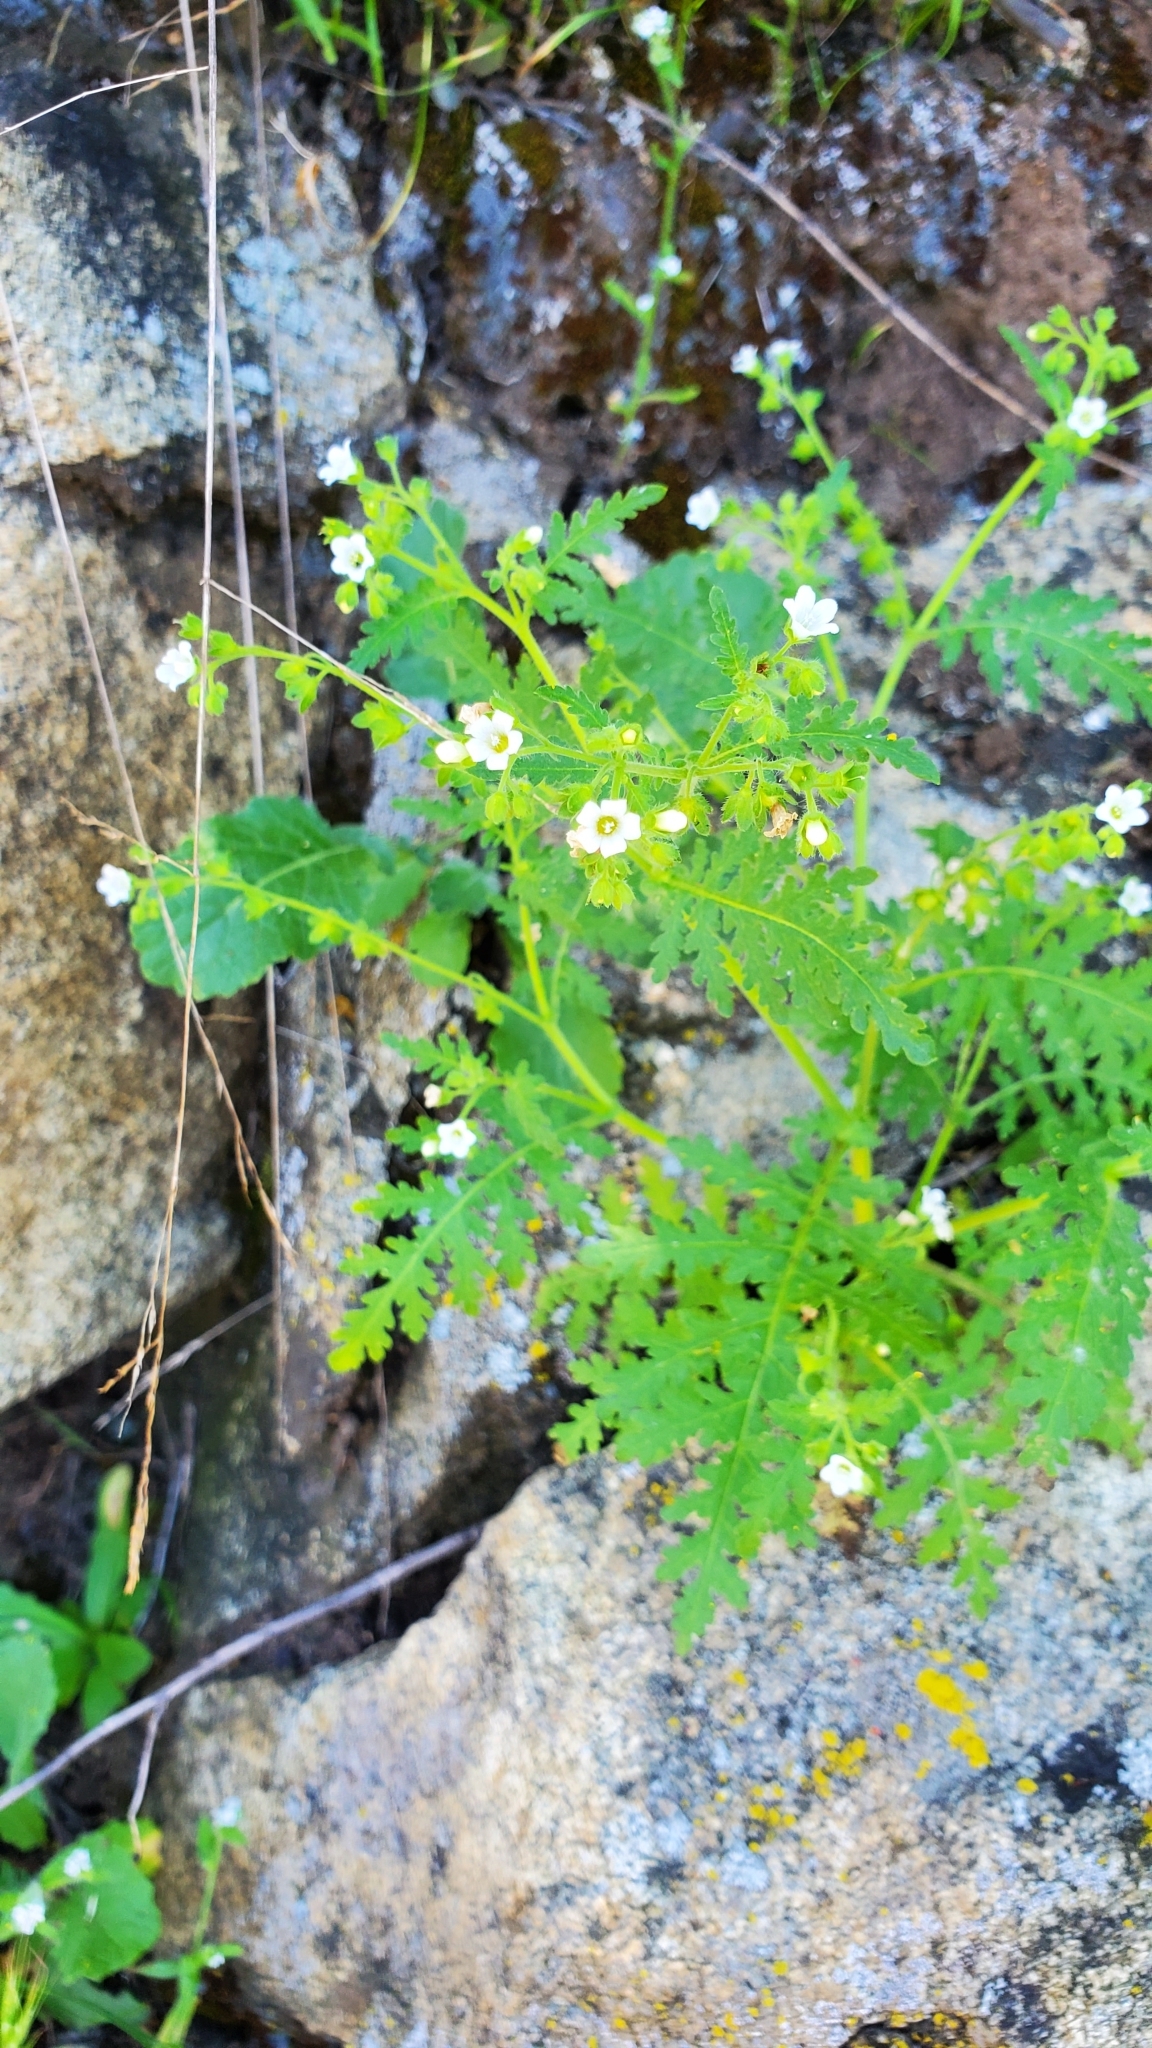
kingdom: Plantae
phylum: Tracheophyta
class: Magnoliopsida
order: Boraginales
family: Hydrophyllaceae
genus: Eucrypta
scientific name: Eucrypta chrysanthemifolia
